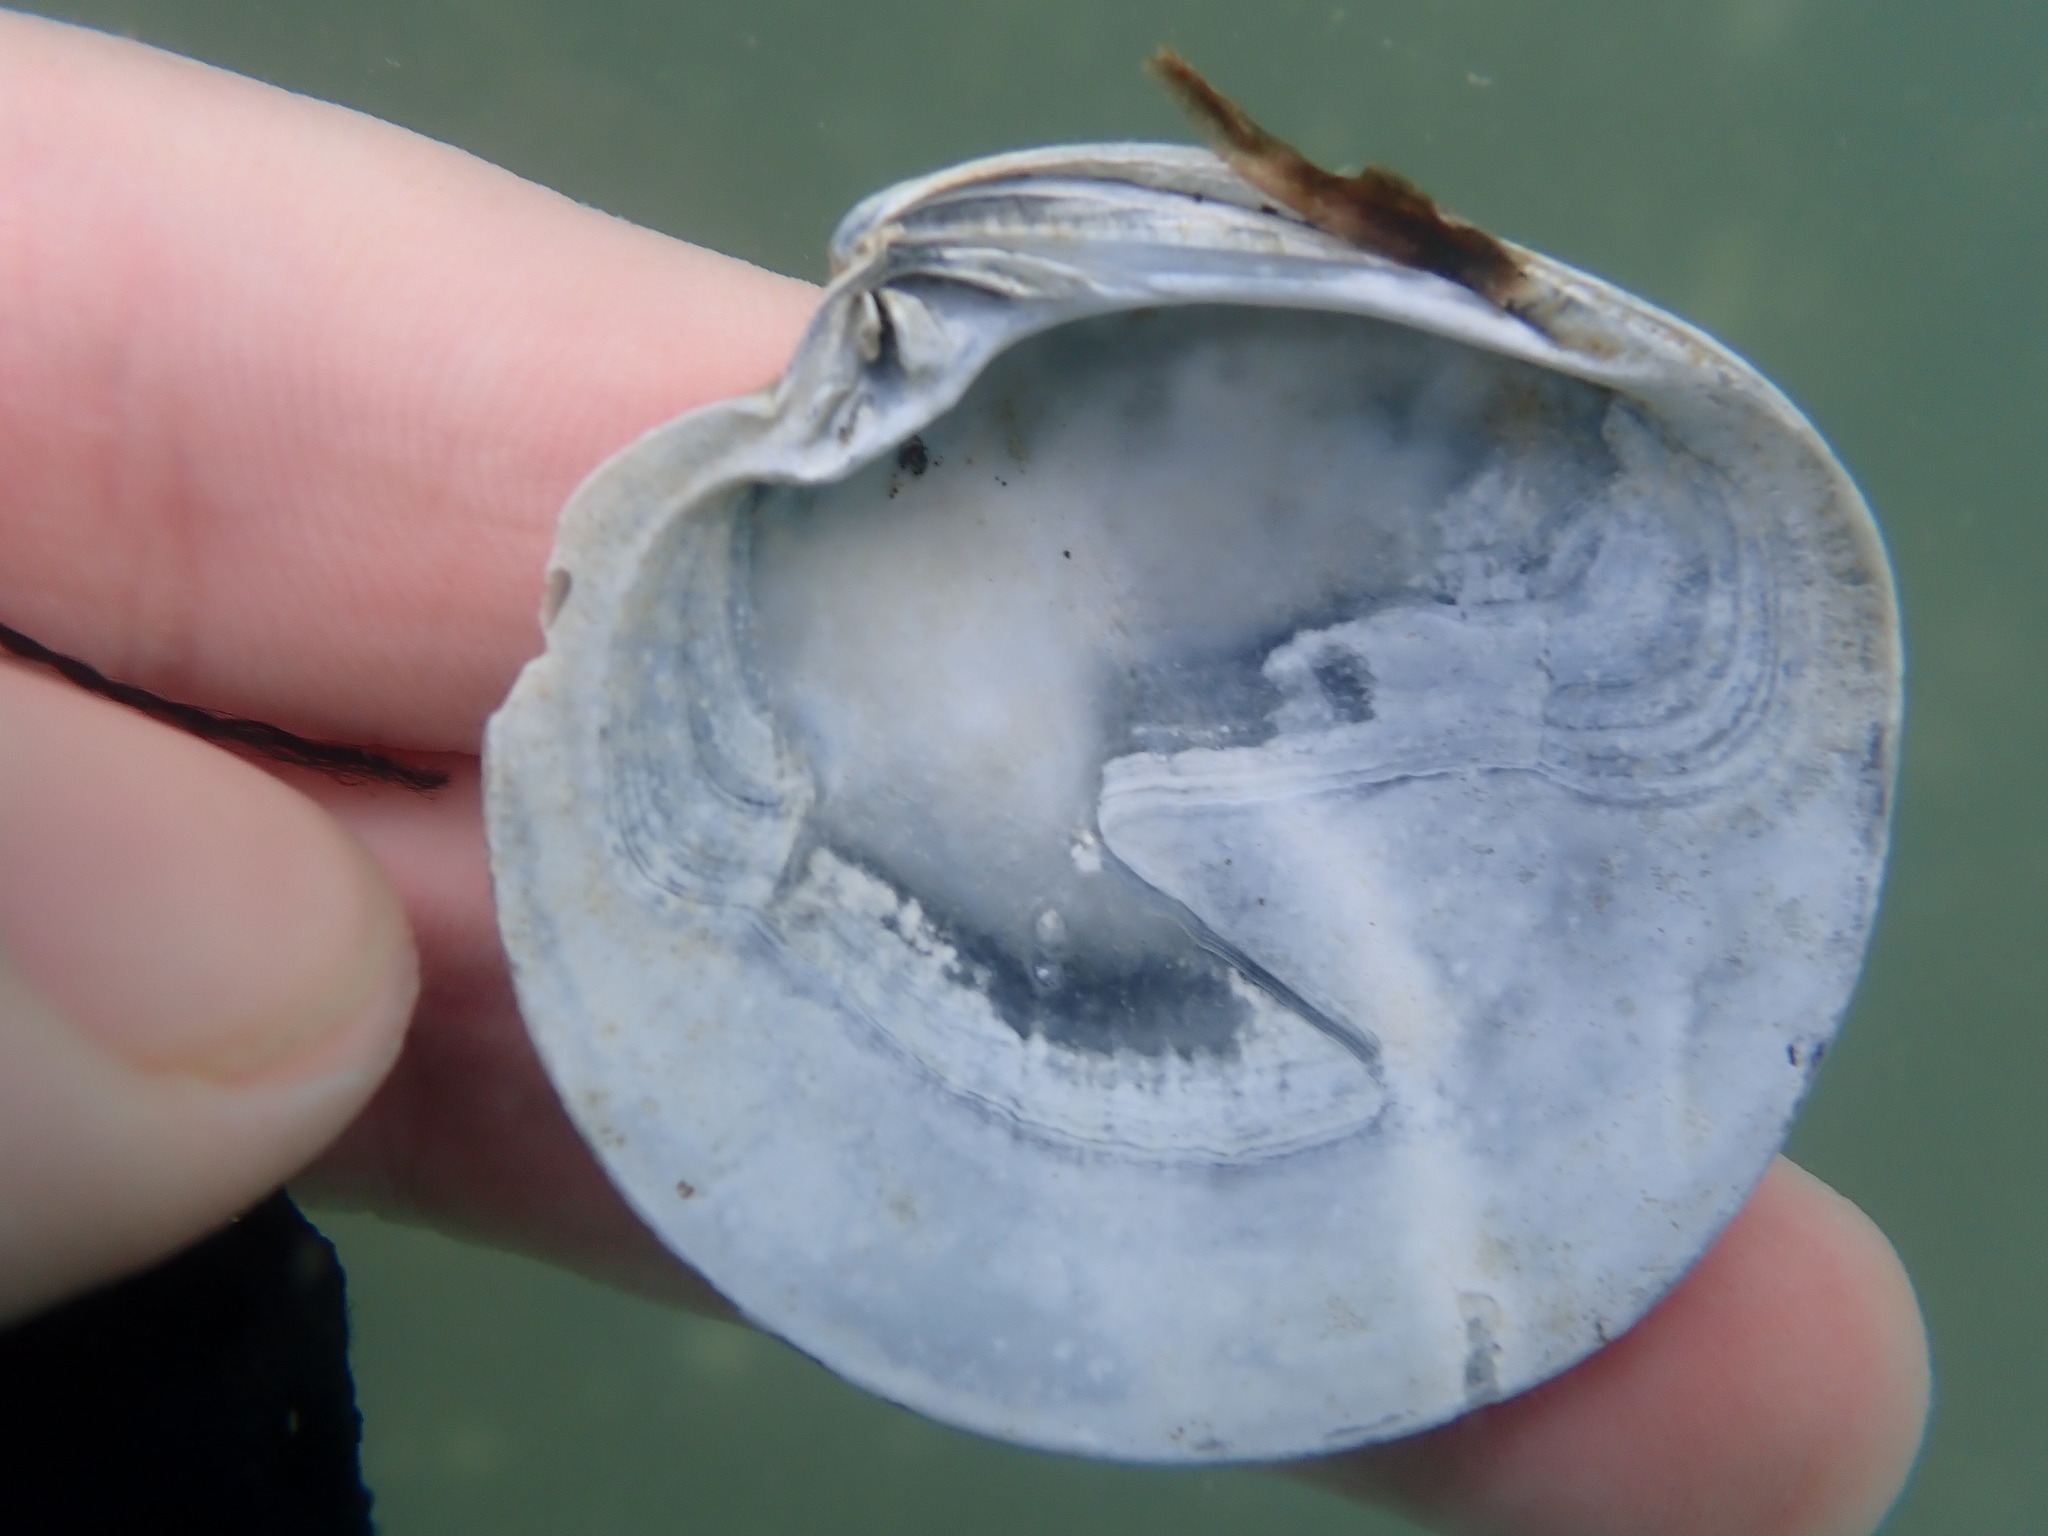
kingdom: Animalia
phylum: Mollusca
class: Bivalvia
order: Venerida
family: Veneridae
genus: Dosinia
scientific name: Dosinia subrosea
